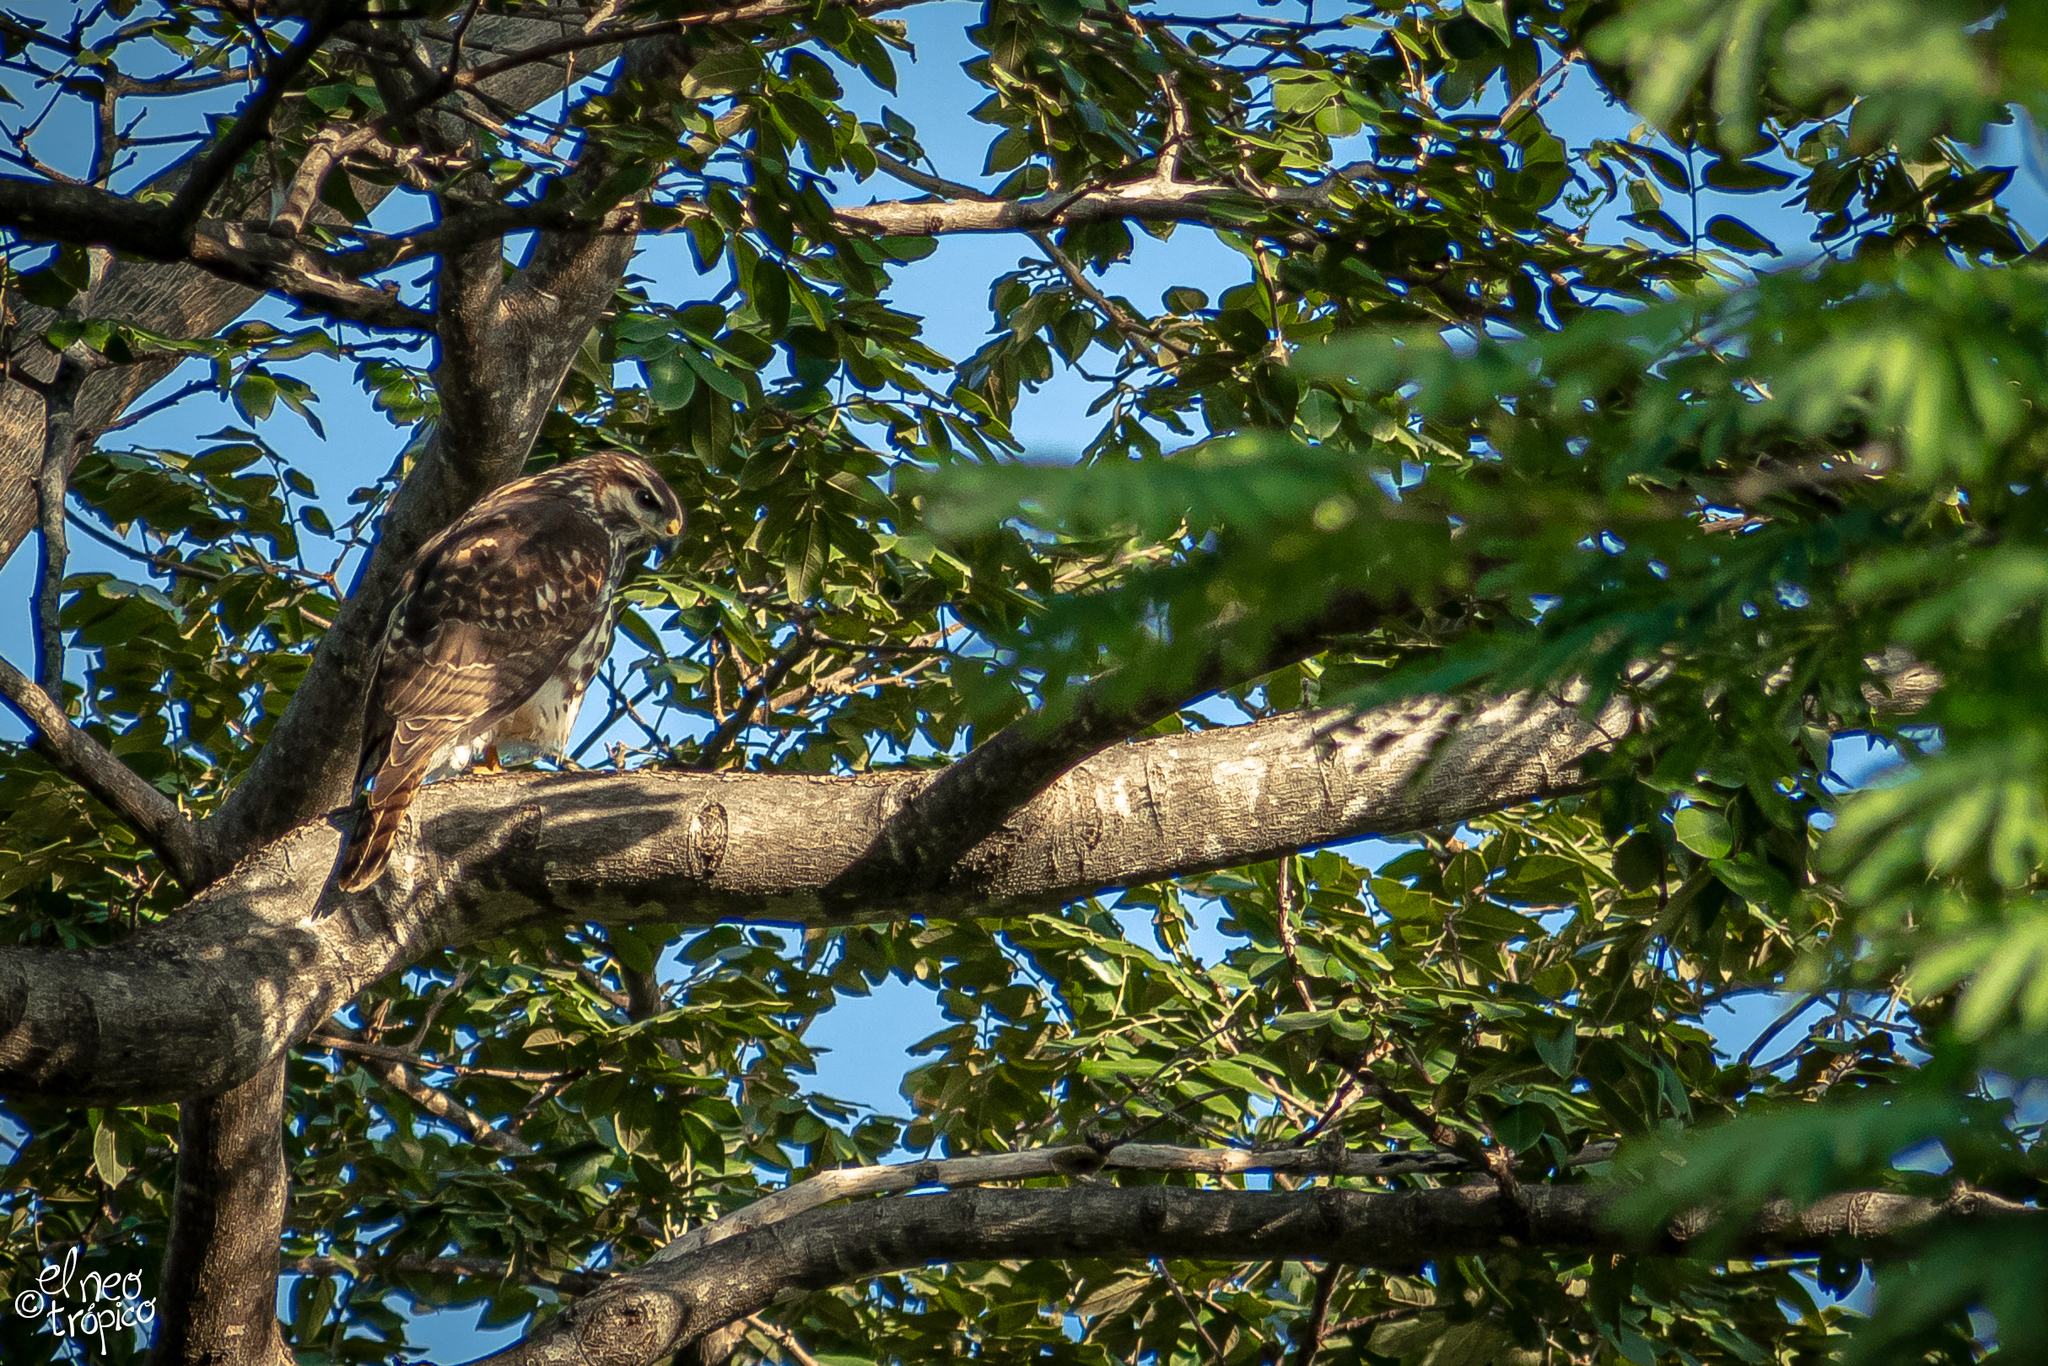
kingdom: Animalia
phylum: Chordata
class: Aves
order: Accipitriformes
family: Accipitridae
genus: Buteo
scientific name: Buteo nitidus
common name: Grey-lined hawk
